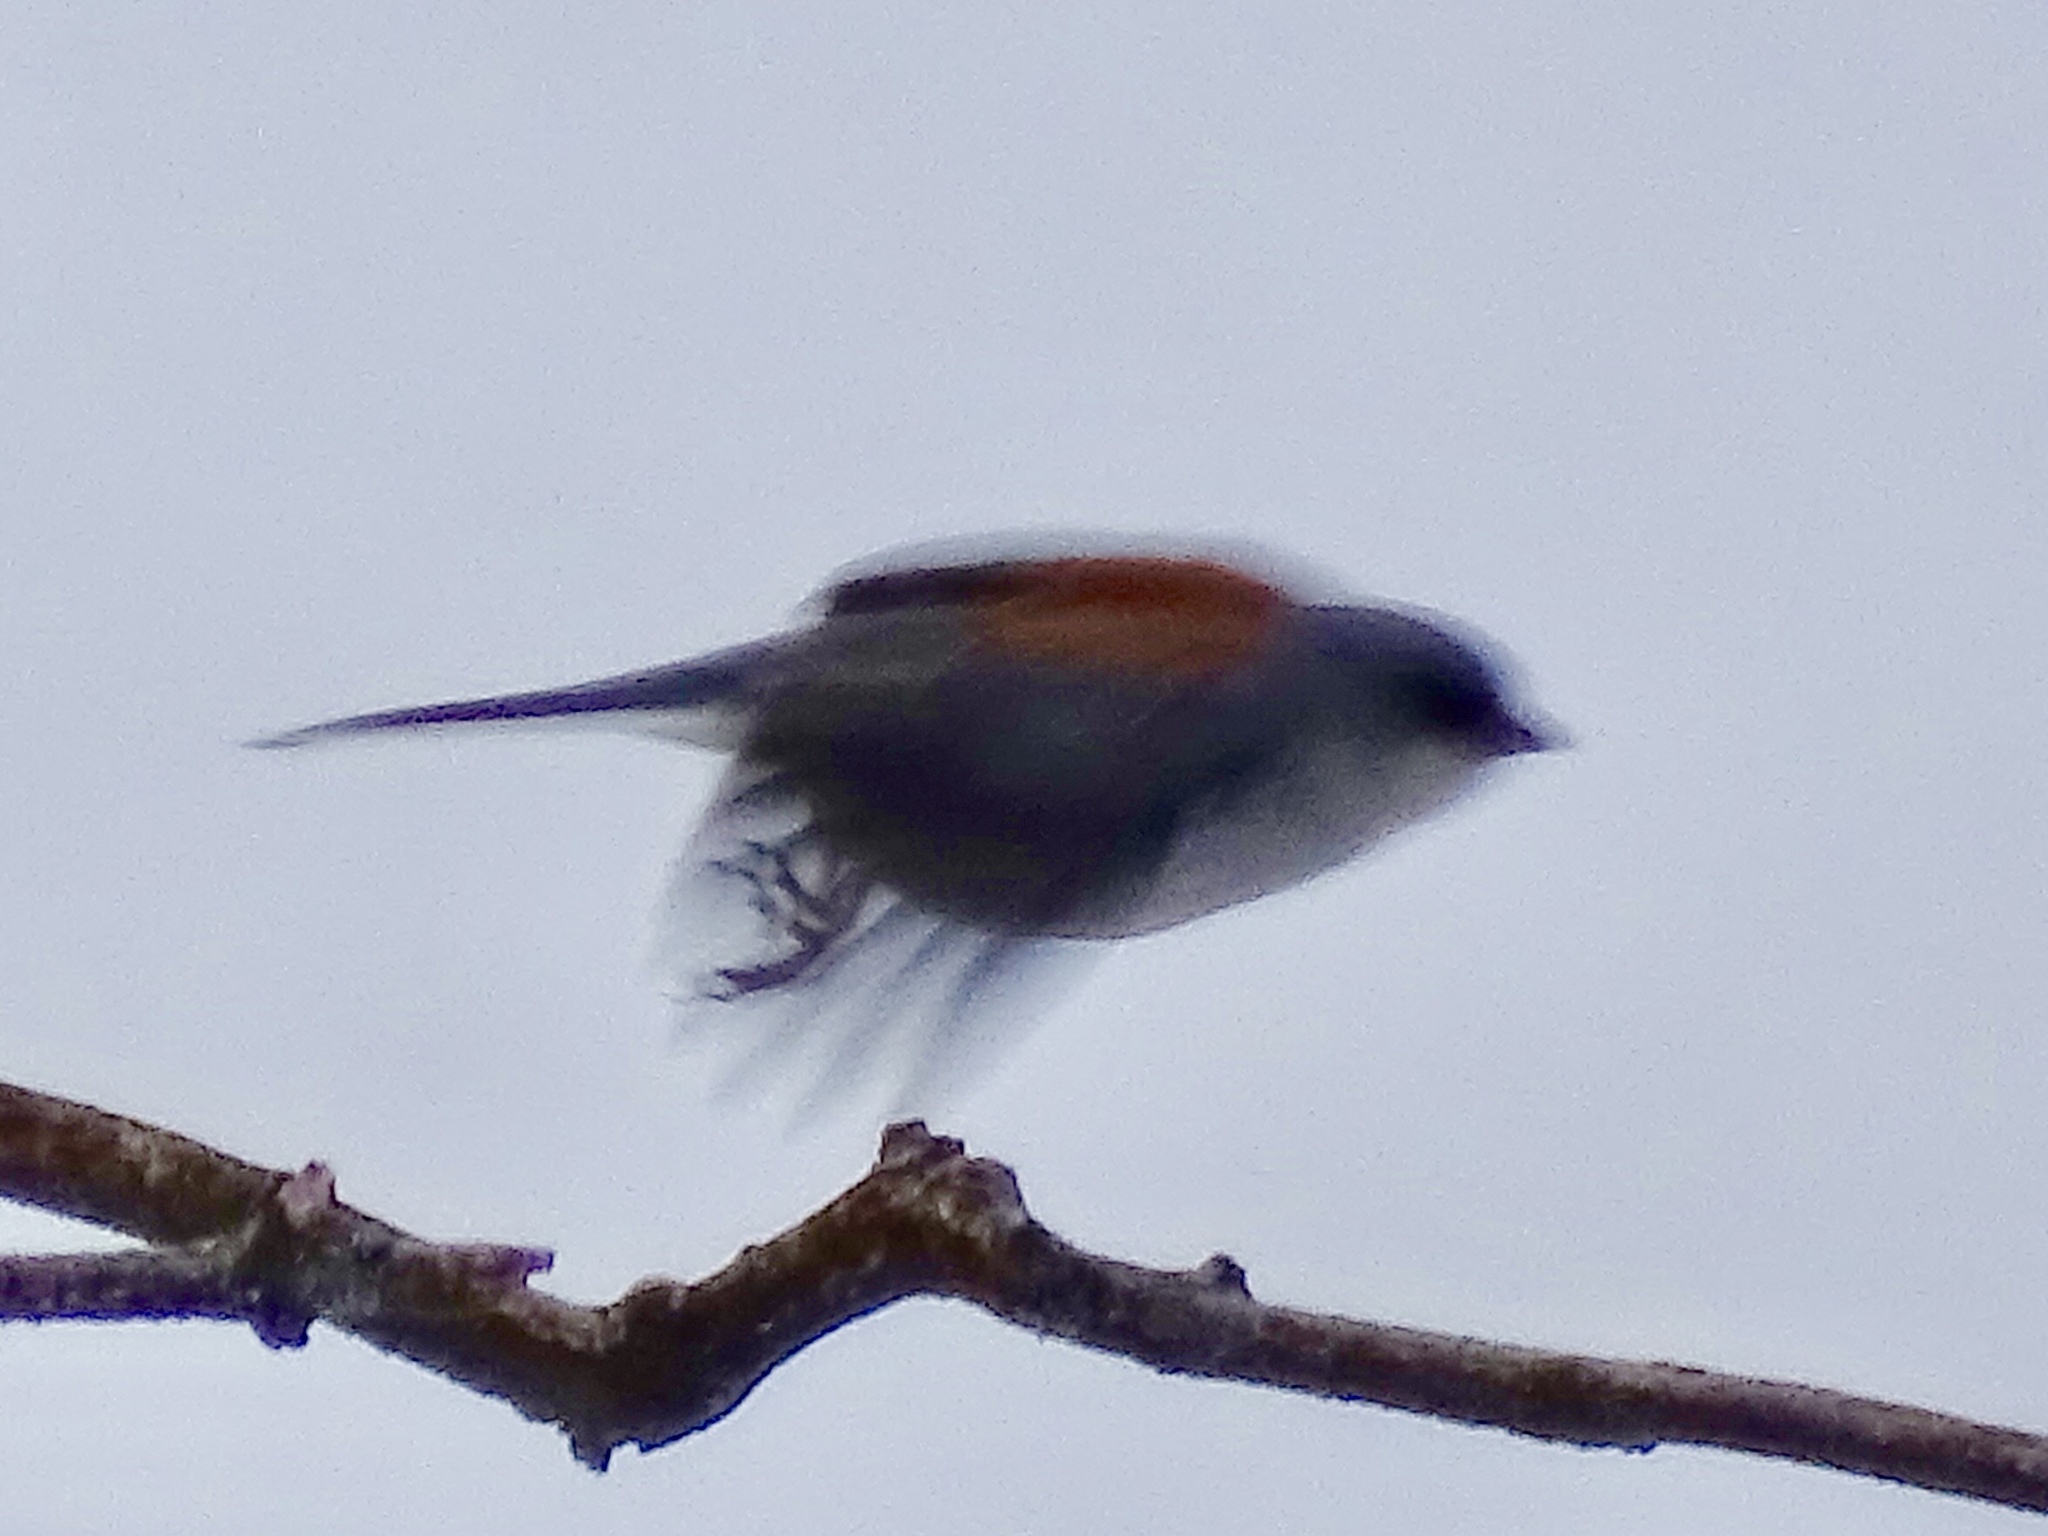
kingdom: Animalia
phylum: Chordata
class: Aves
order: Passeriformes
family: Passerellidae
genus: Junco
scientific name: Junco hyemalis
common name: Dark-eyed junco
